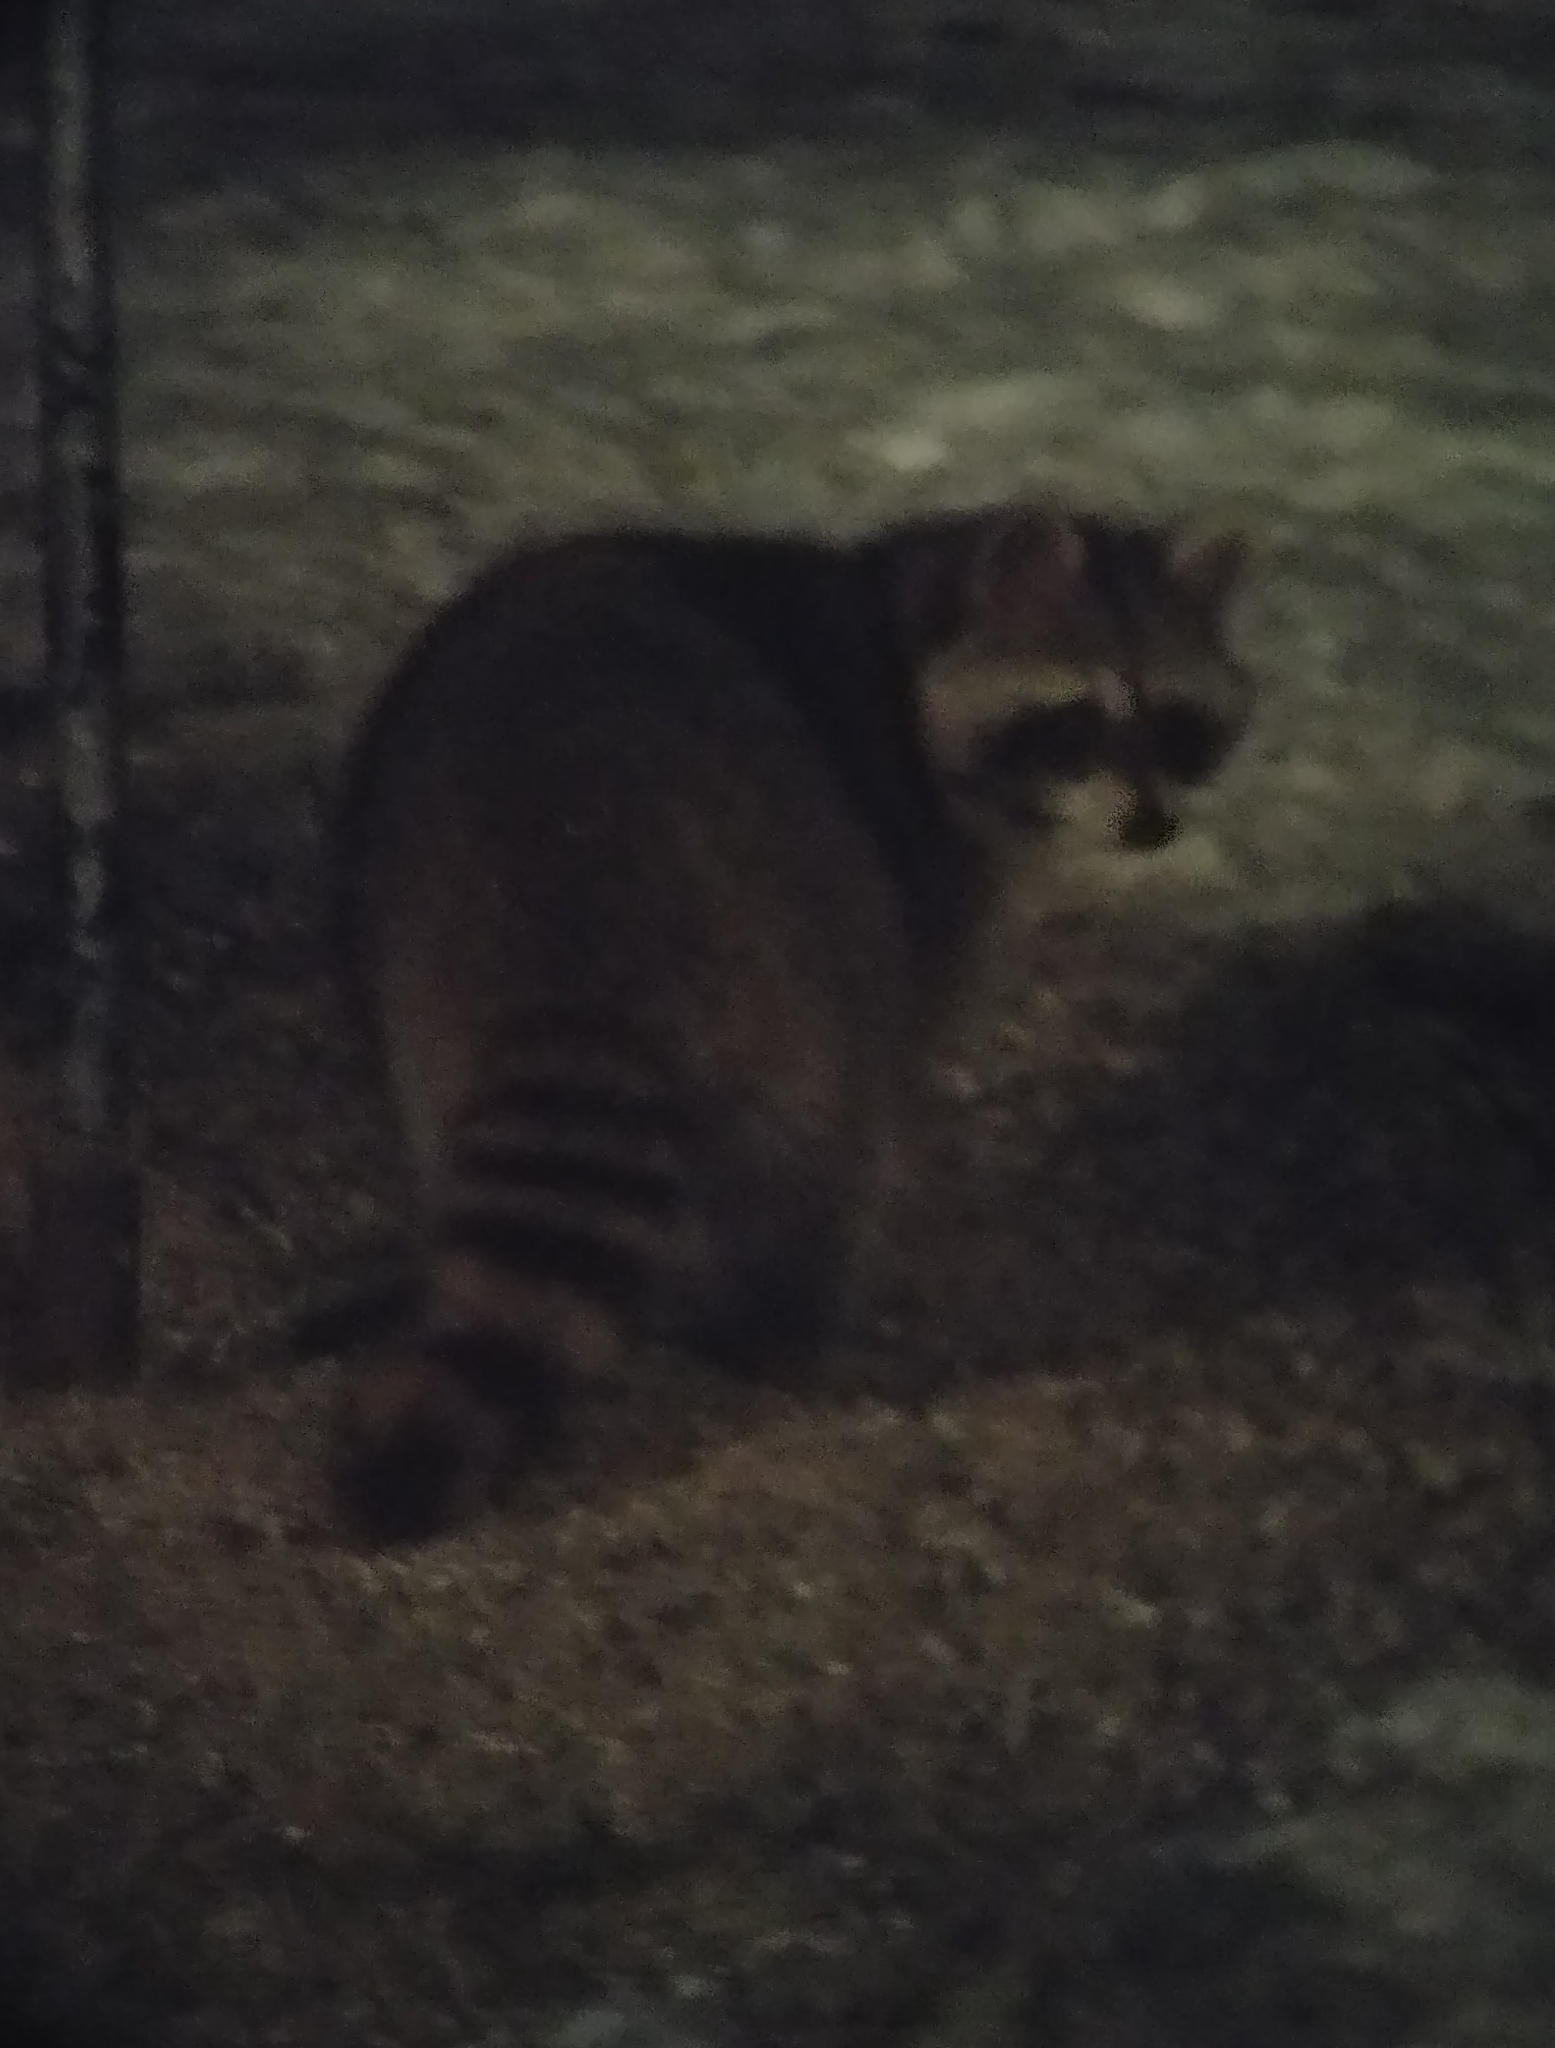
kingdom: Animalia
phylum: Chordata
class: Mammalia
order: Carnivora
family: Procyonidae
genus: Procyon
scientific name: Procyon lotor
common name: Raccoon
